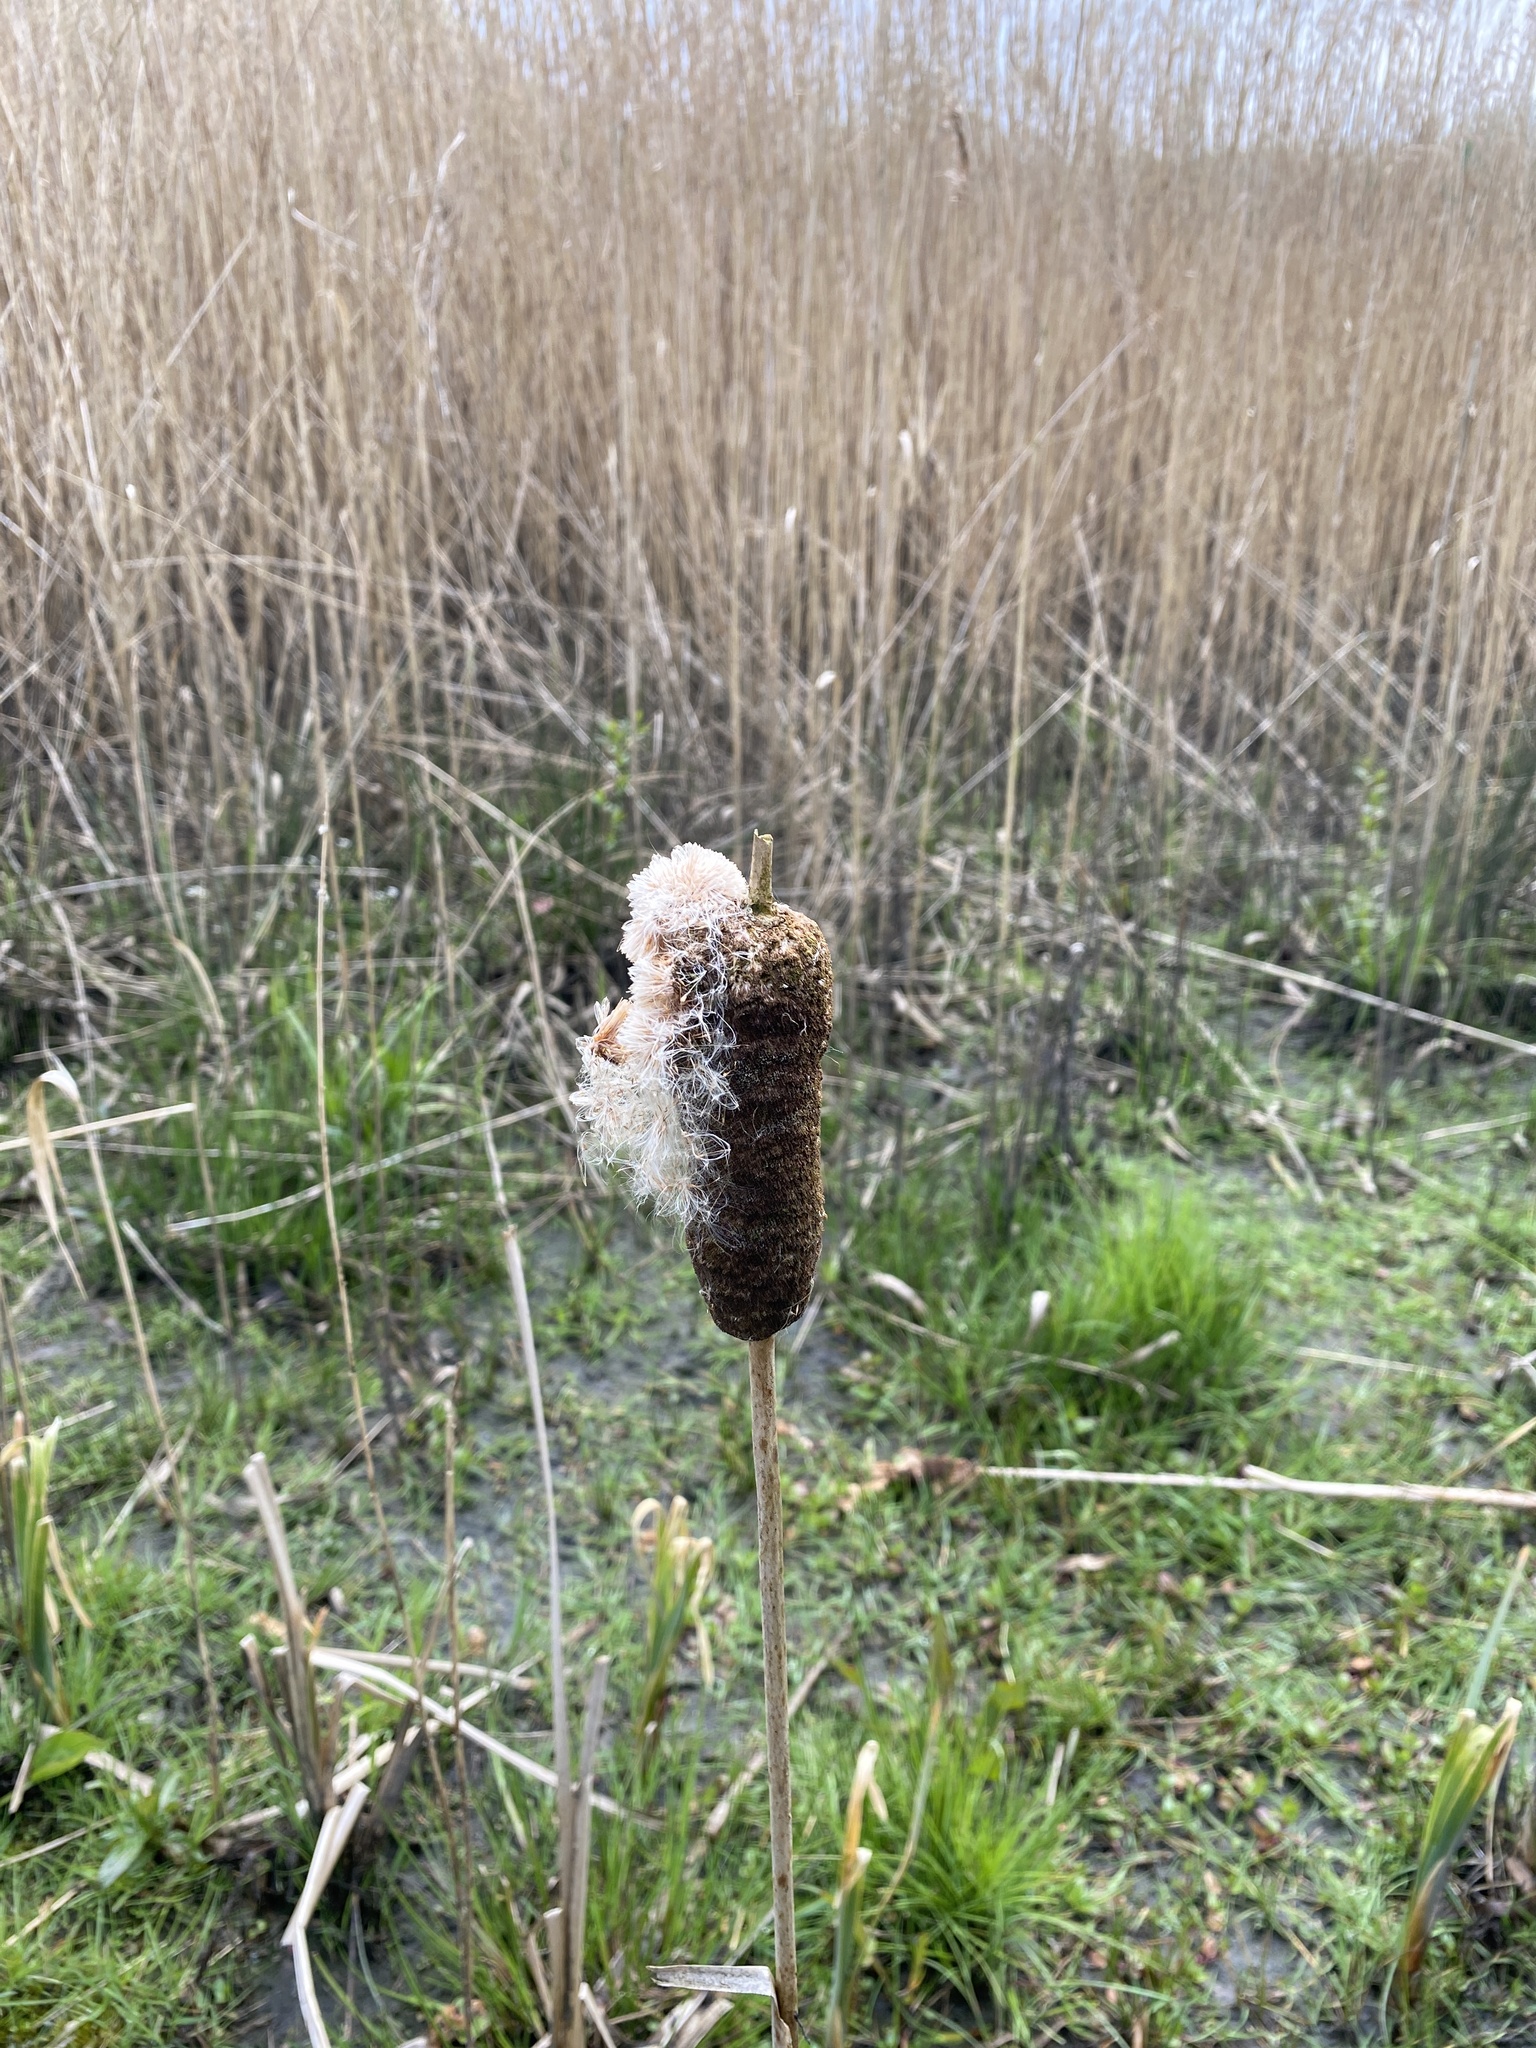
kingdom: Plantae
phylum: Tracheophyta
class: Liliopsida
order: Poales
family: Typhaceae
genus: Typha
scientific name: Typha latifolia
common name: Broadleaf cattail
